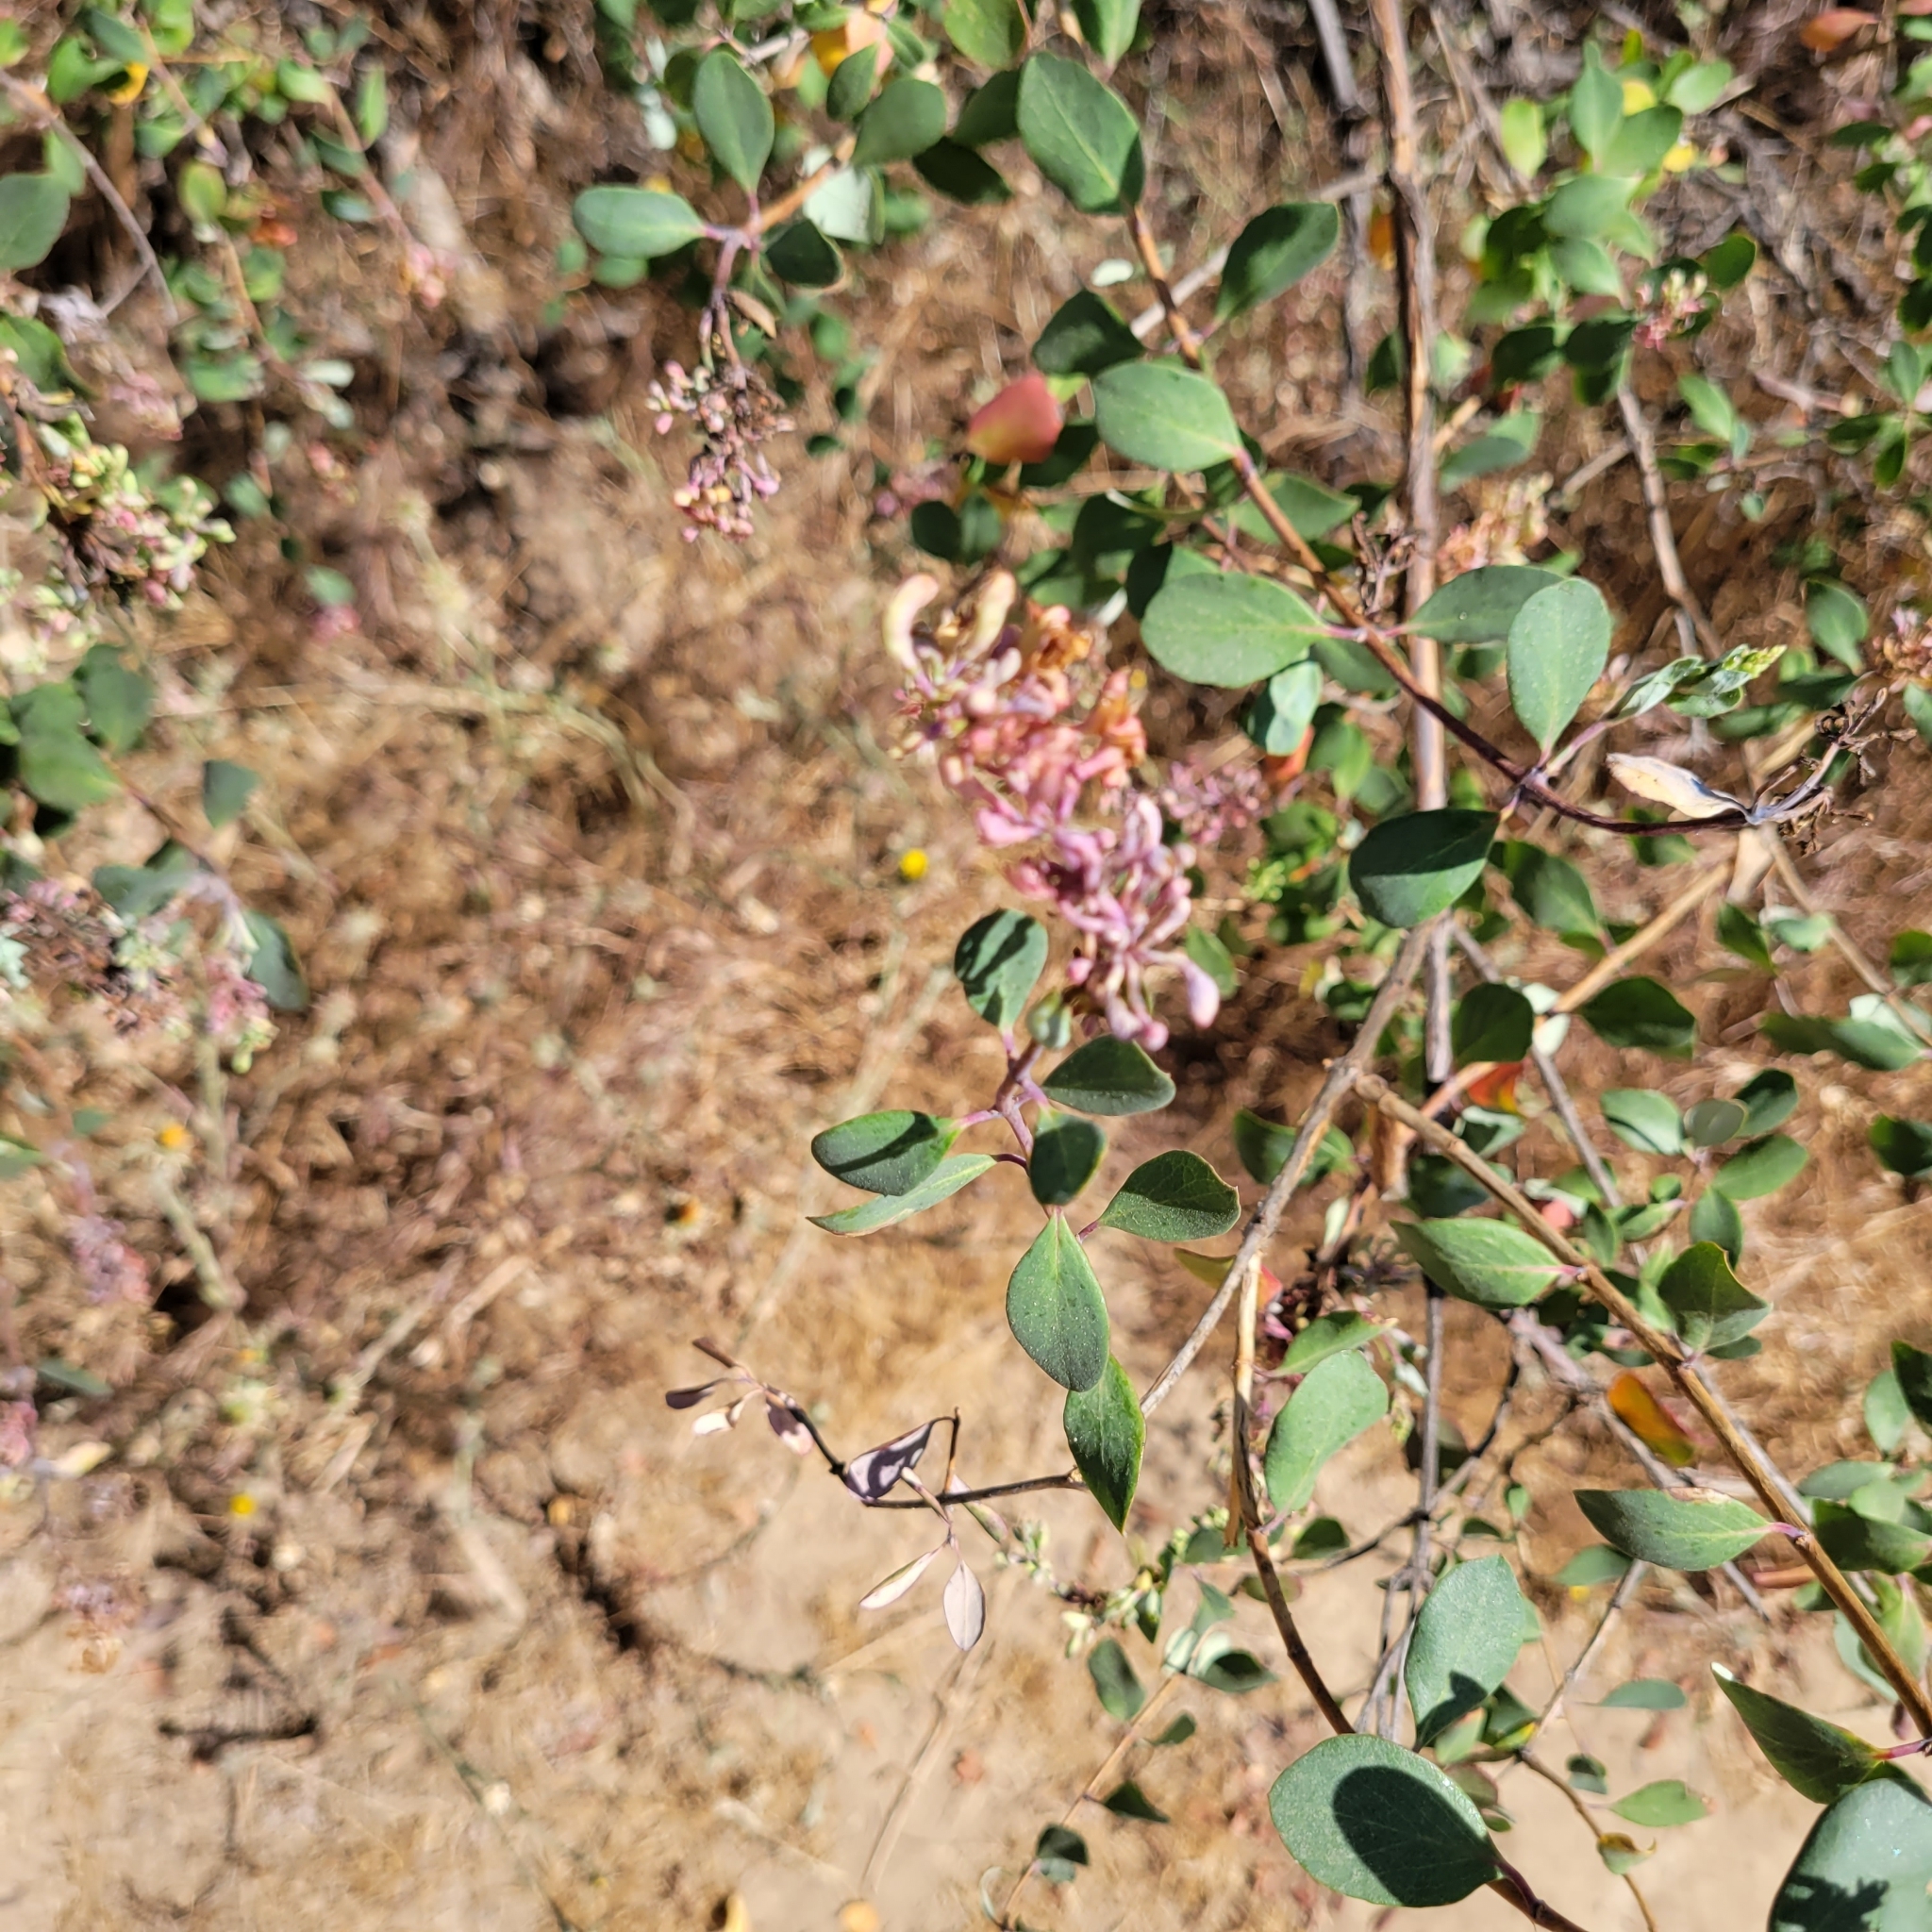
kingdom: Plantae
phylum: Tracheophyta
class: Magnoliopsida
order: Dipsacales
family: Caprifoliaceae
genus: Lonicera
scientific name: Lonicera subspicata
